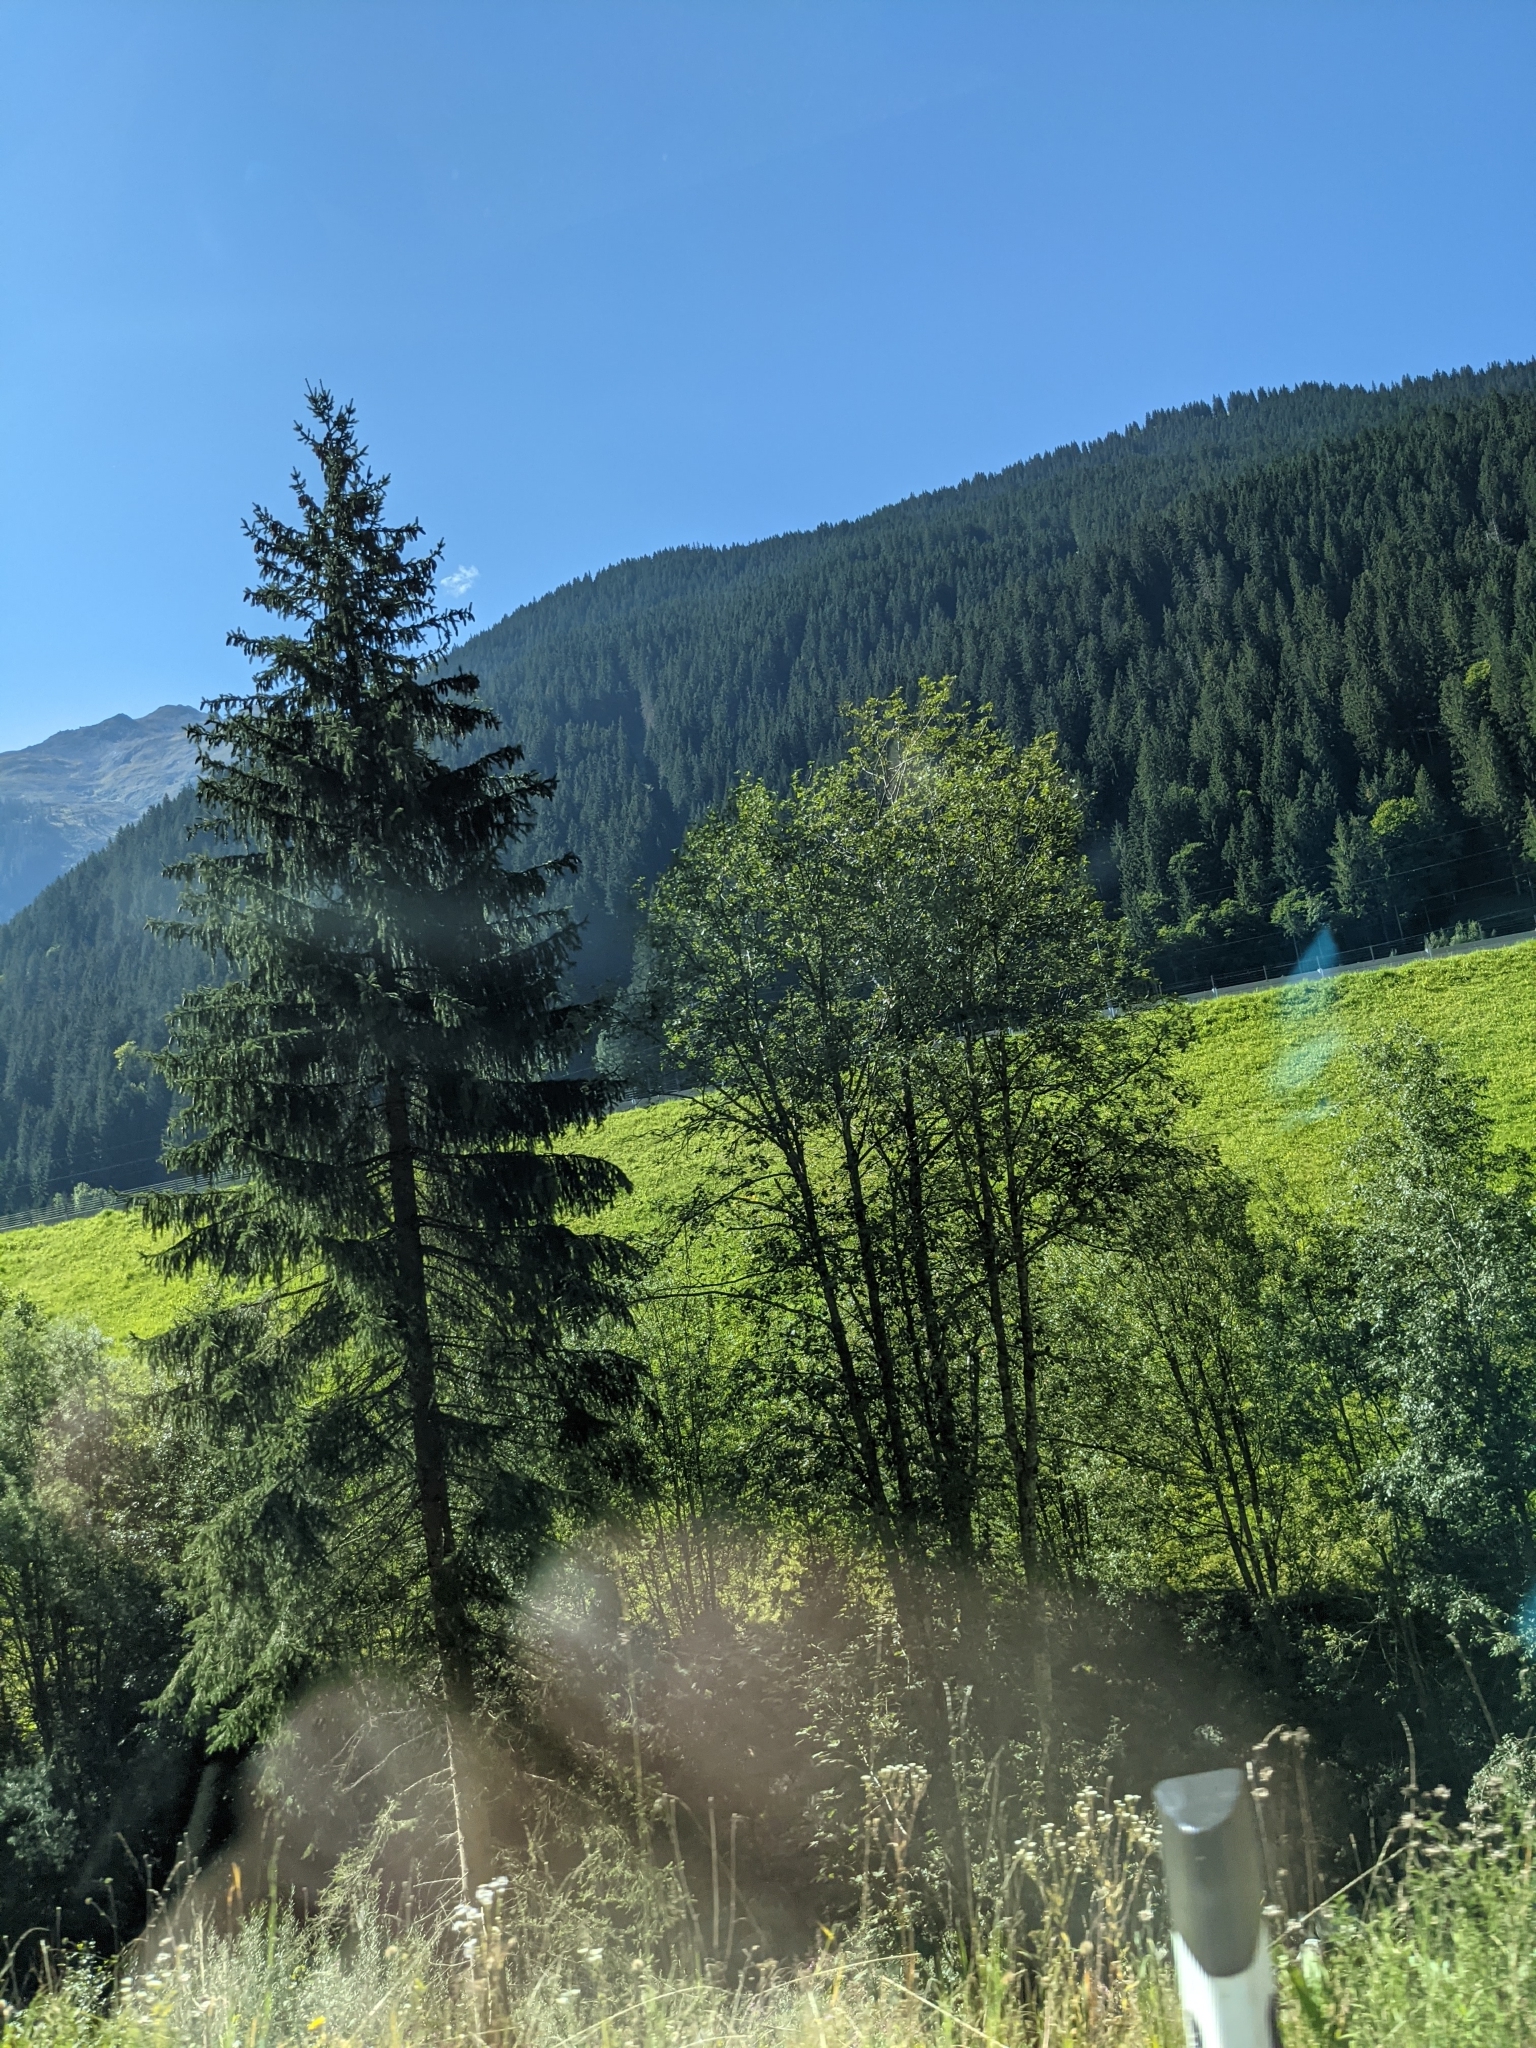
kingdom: Plantae
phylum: Tracheophyta
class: Pinopsida
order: Pinales
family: Pinaceae
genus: Picea
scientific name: Picea abies
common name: Norway spruce
